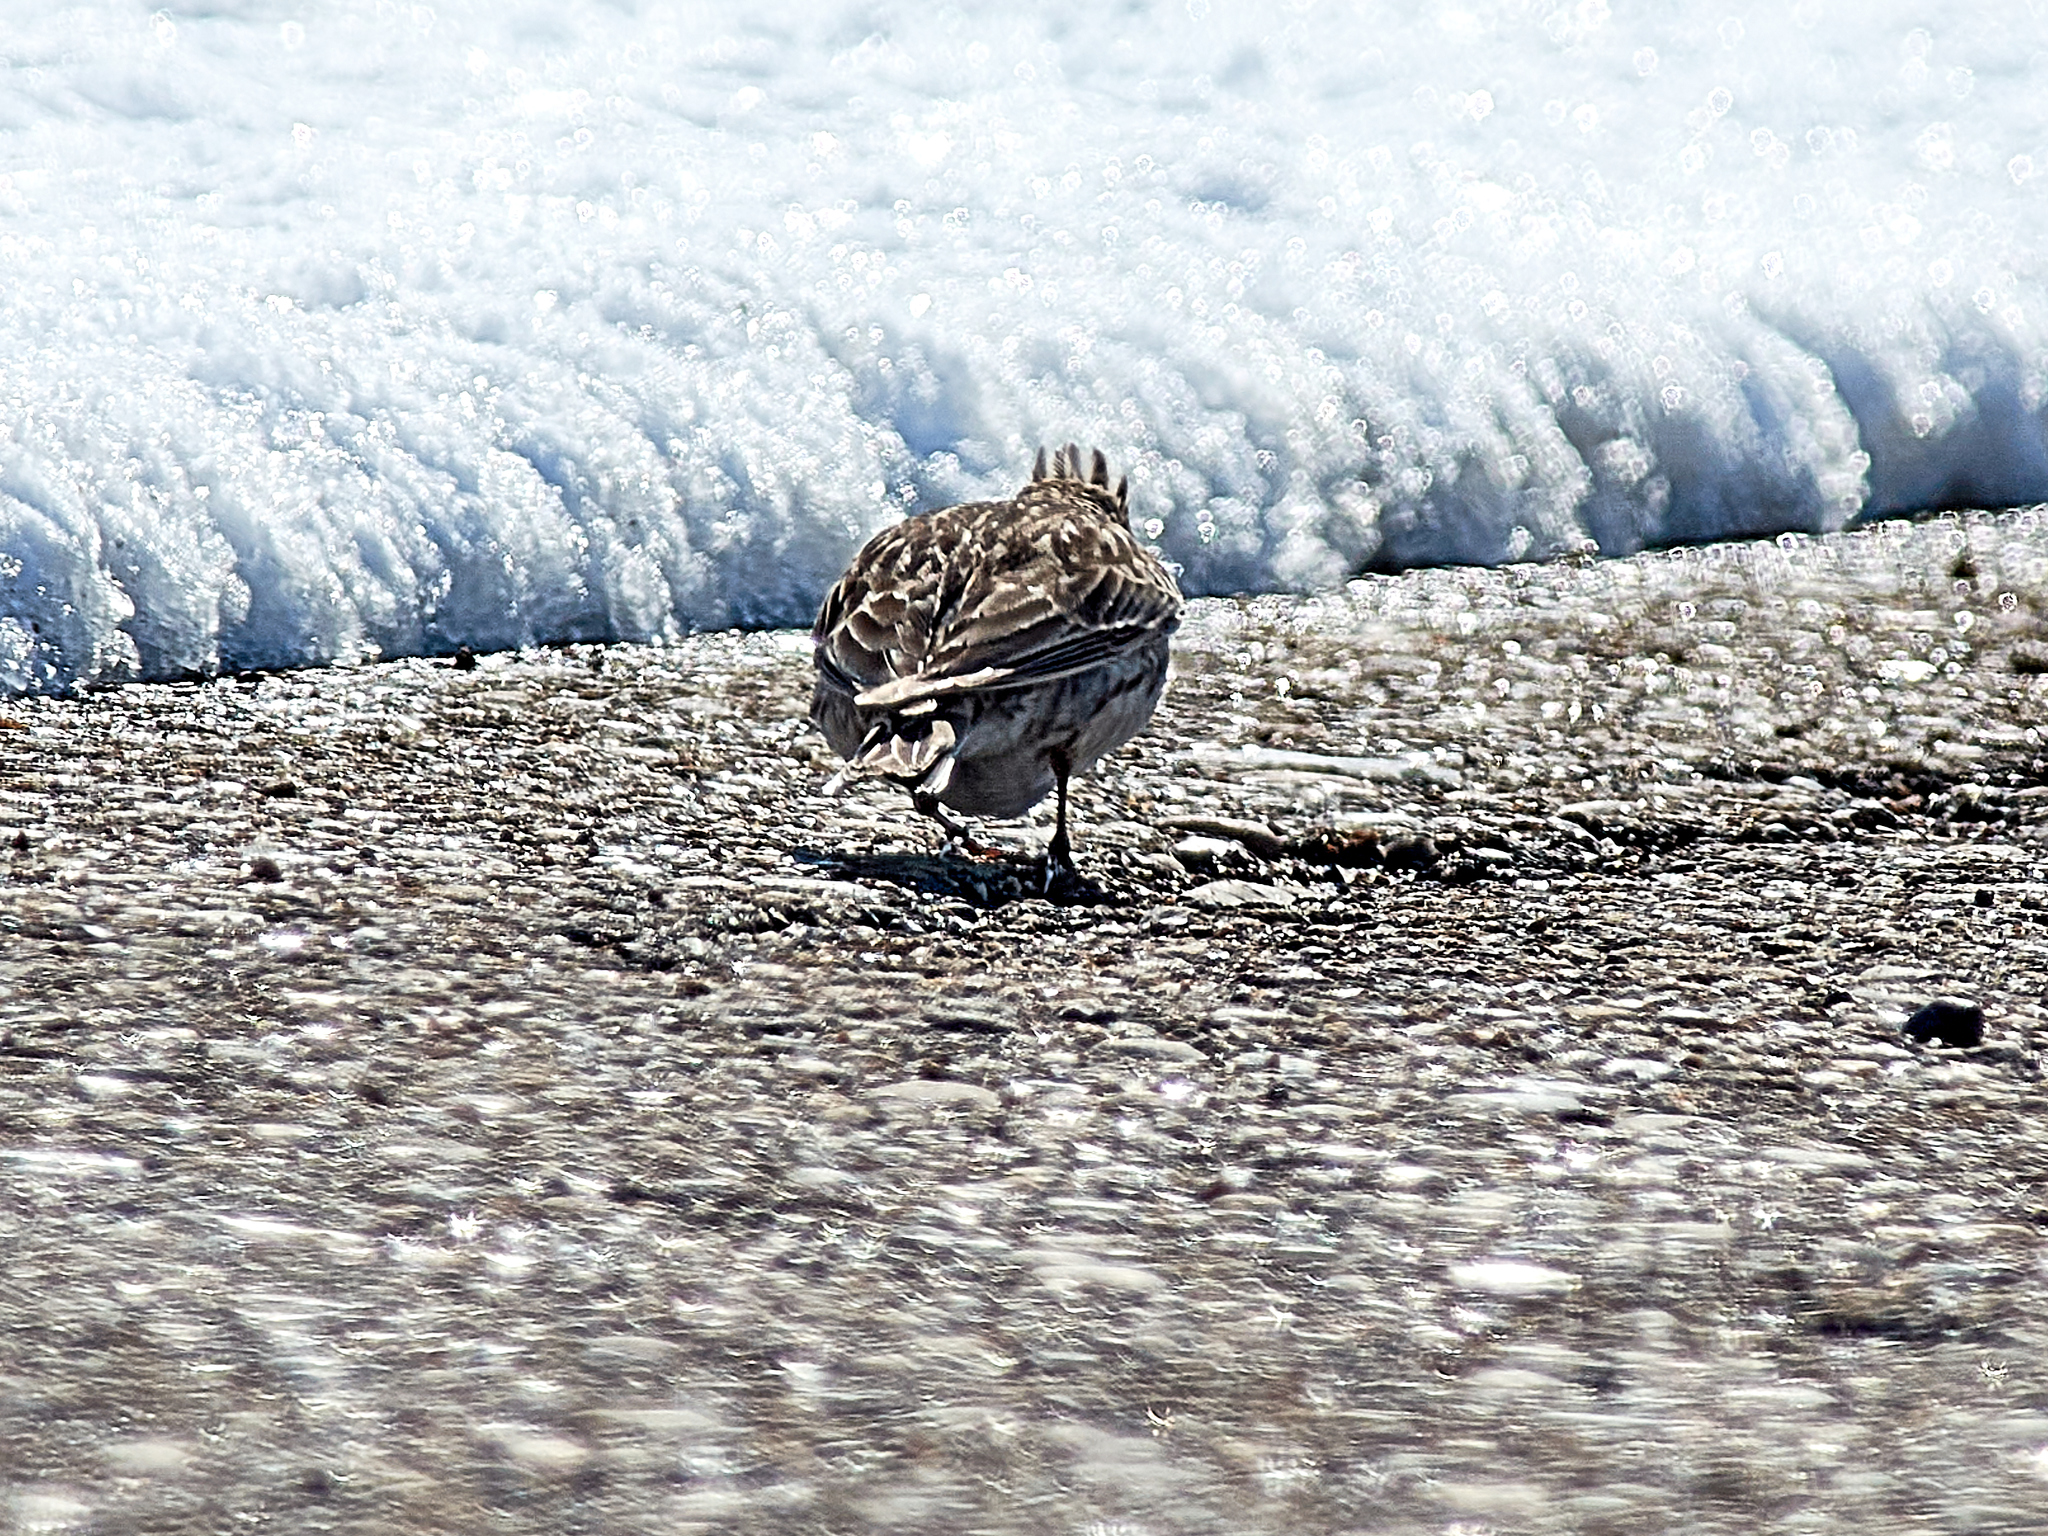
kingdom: Animalia
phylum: Chordata
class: Aves
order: Passeriformes
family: Alaudidae
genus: Alauda
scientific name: Alauda arvensis
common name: Eurasian skylark
